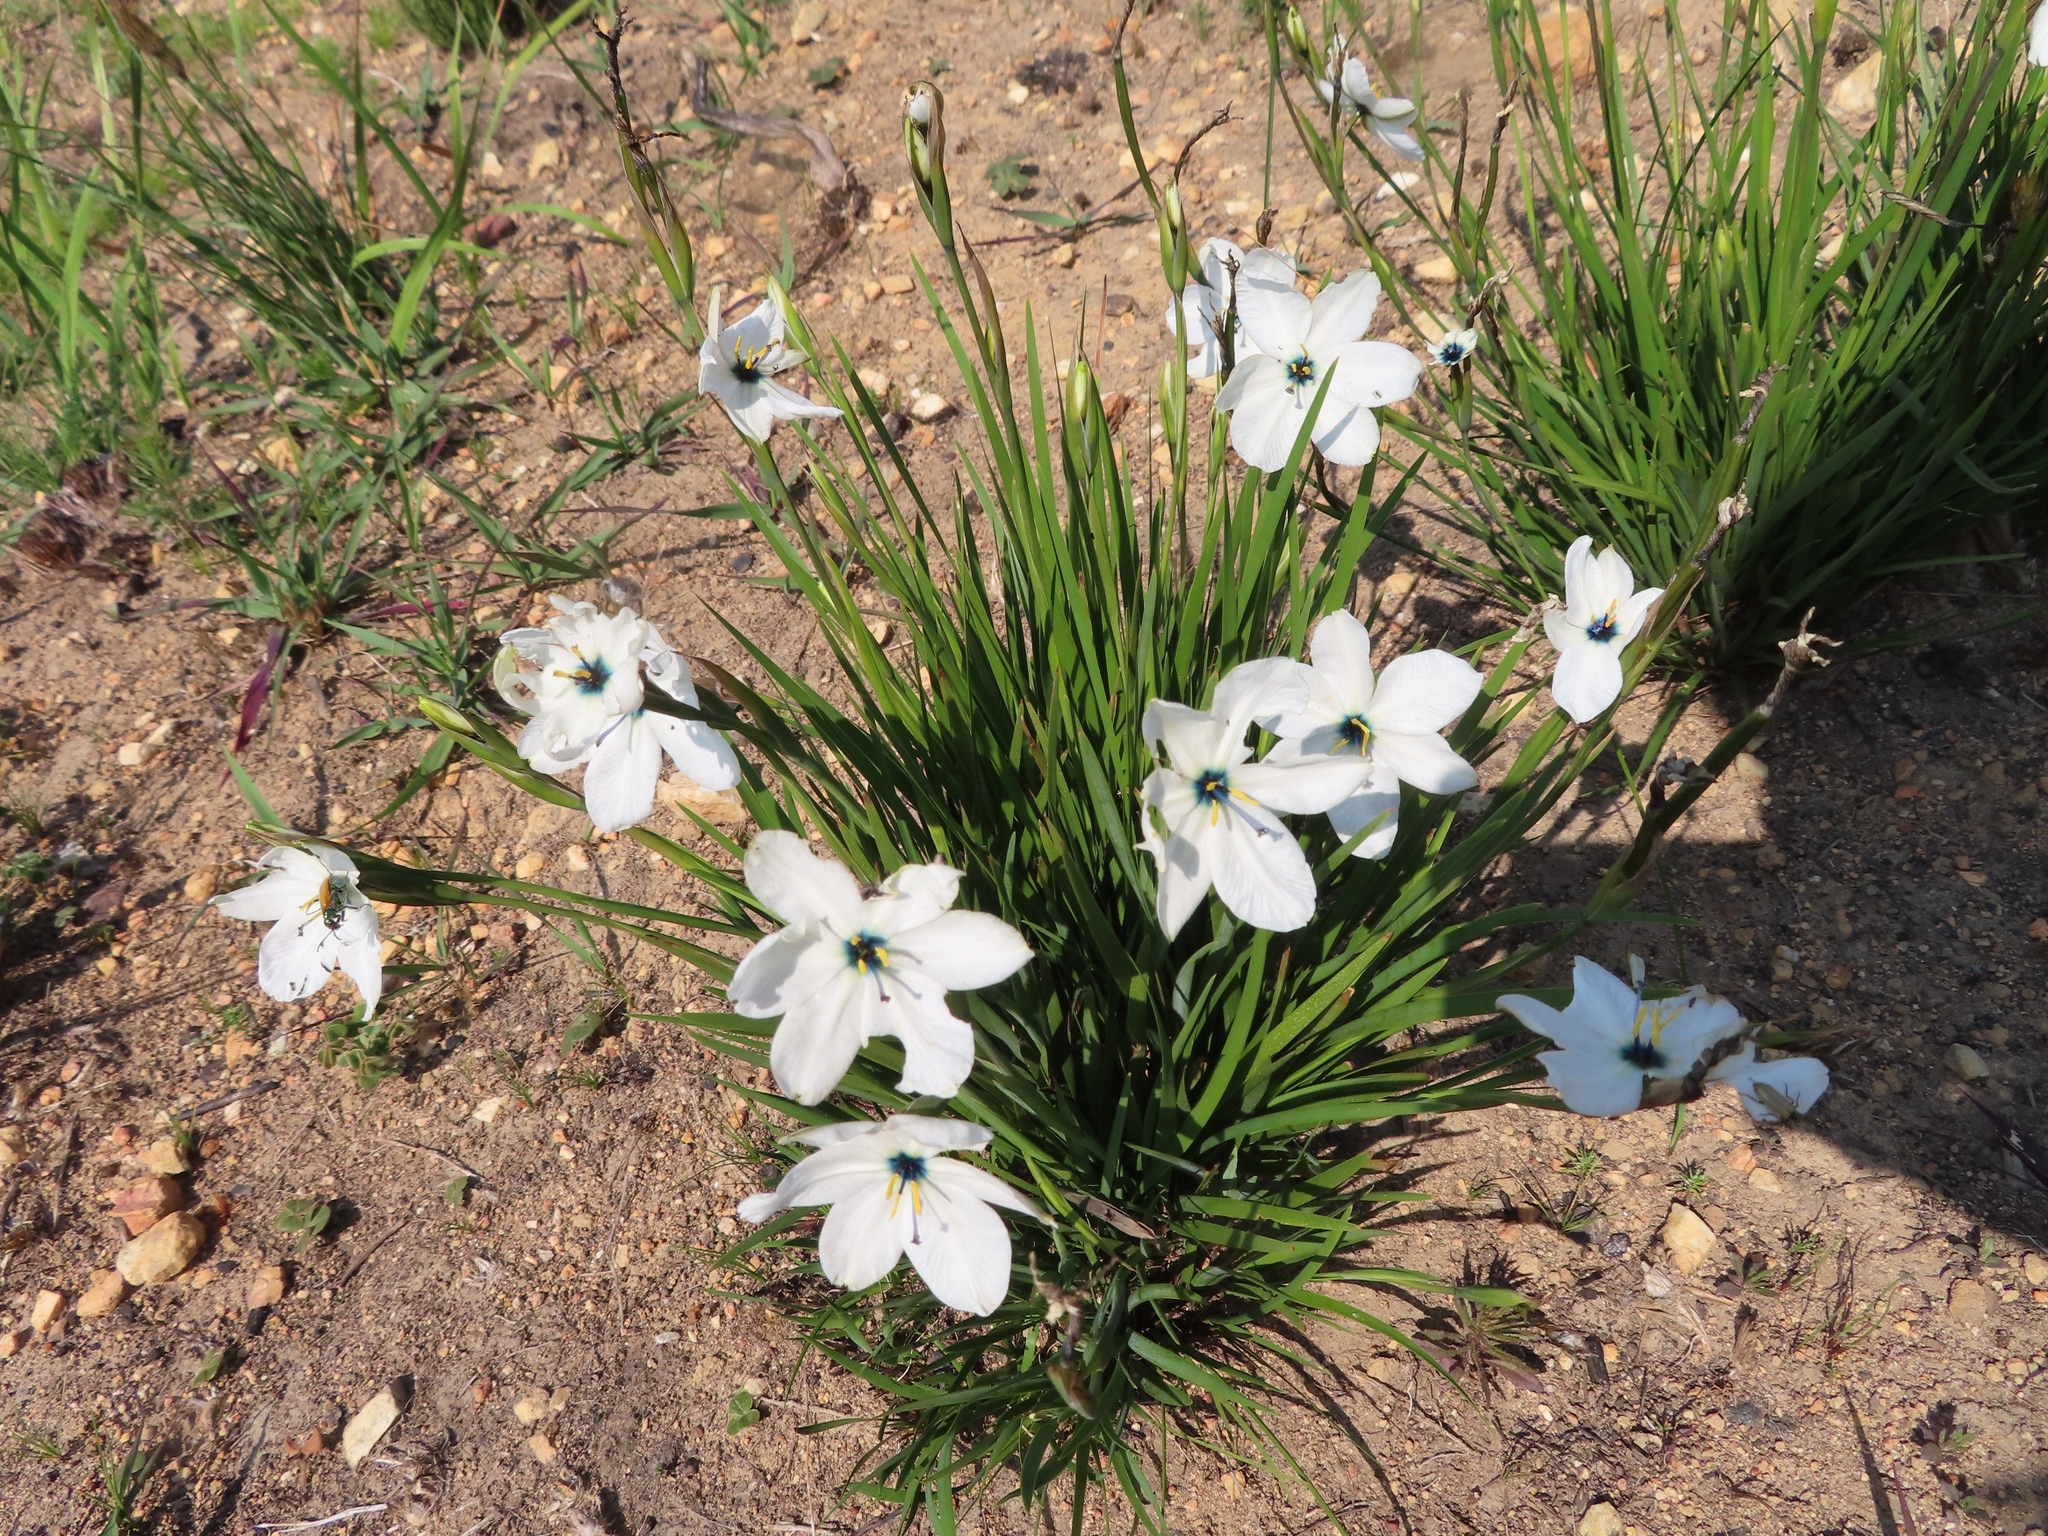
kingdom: Plantae
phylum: Tracheophyta
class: Liliopsida
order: Asparagales
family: Iridaceae
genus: Aristea
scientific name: Aristea cantharophila
